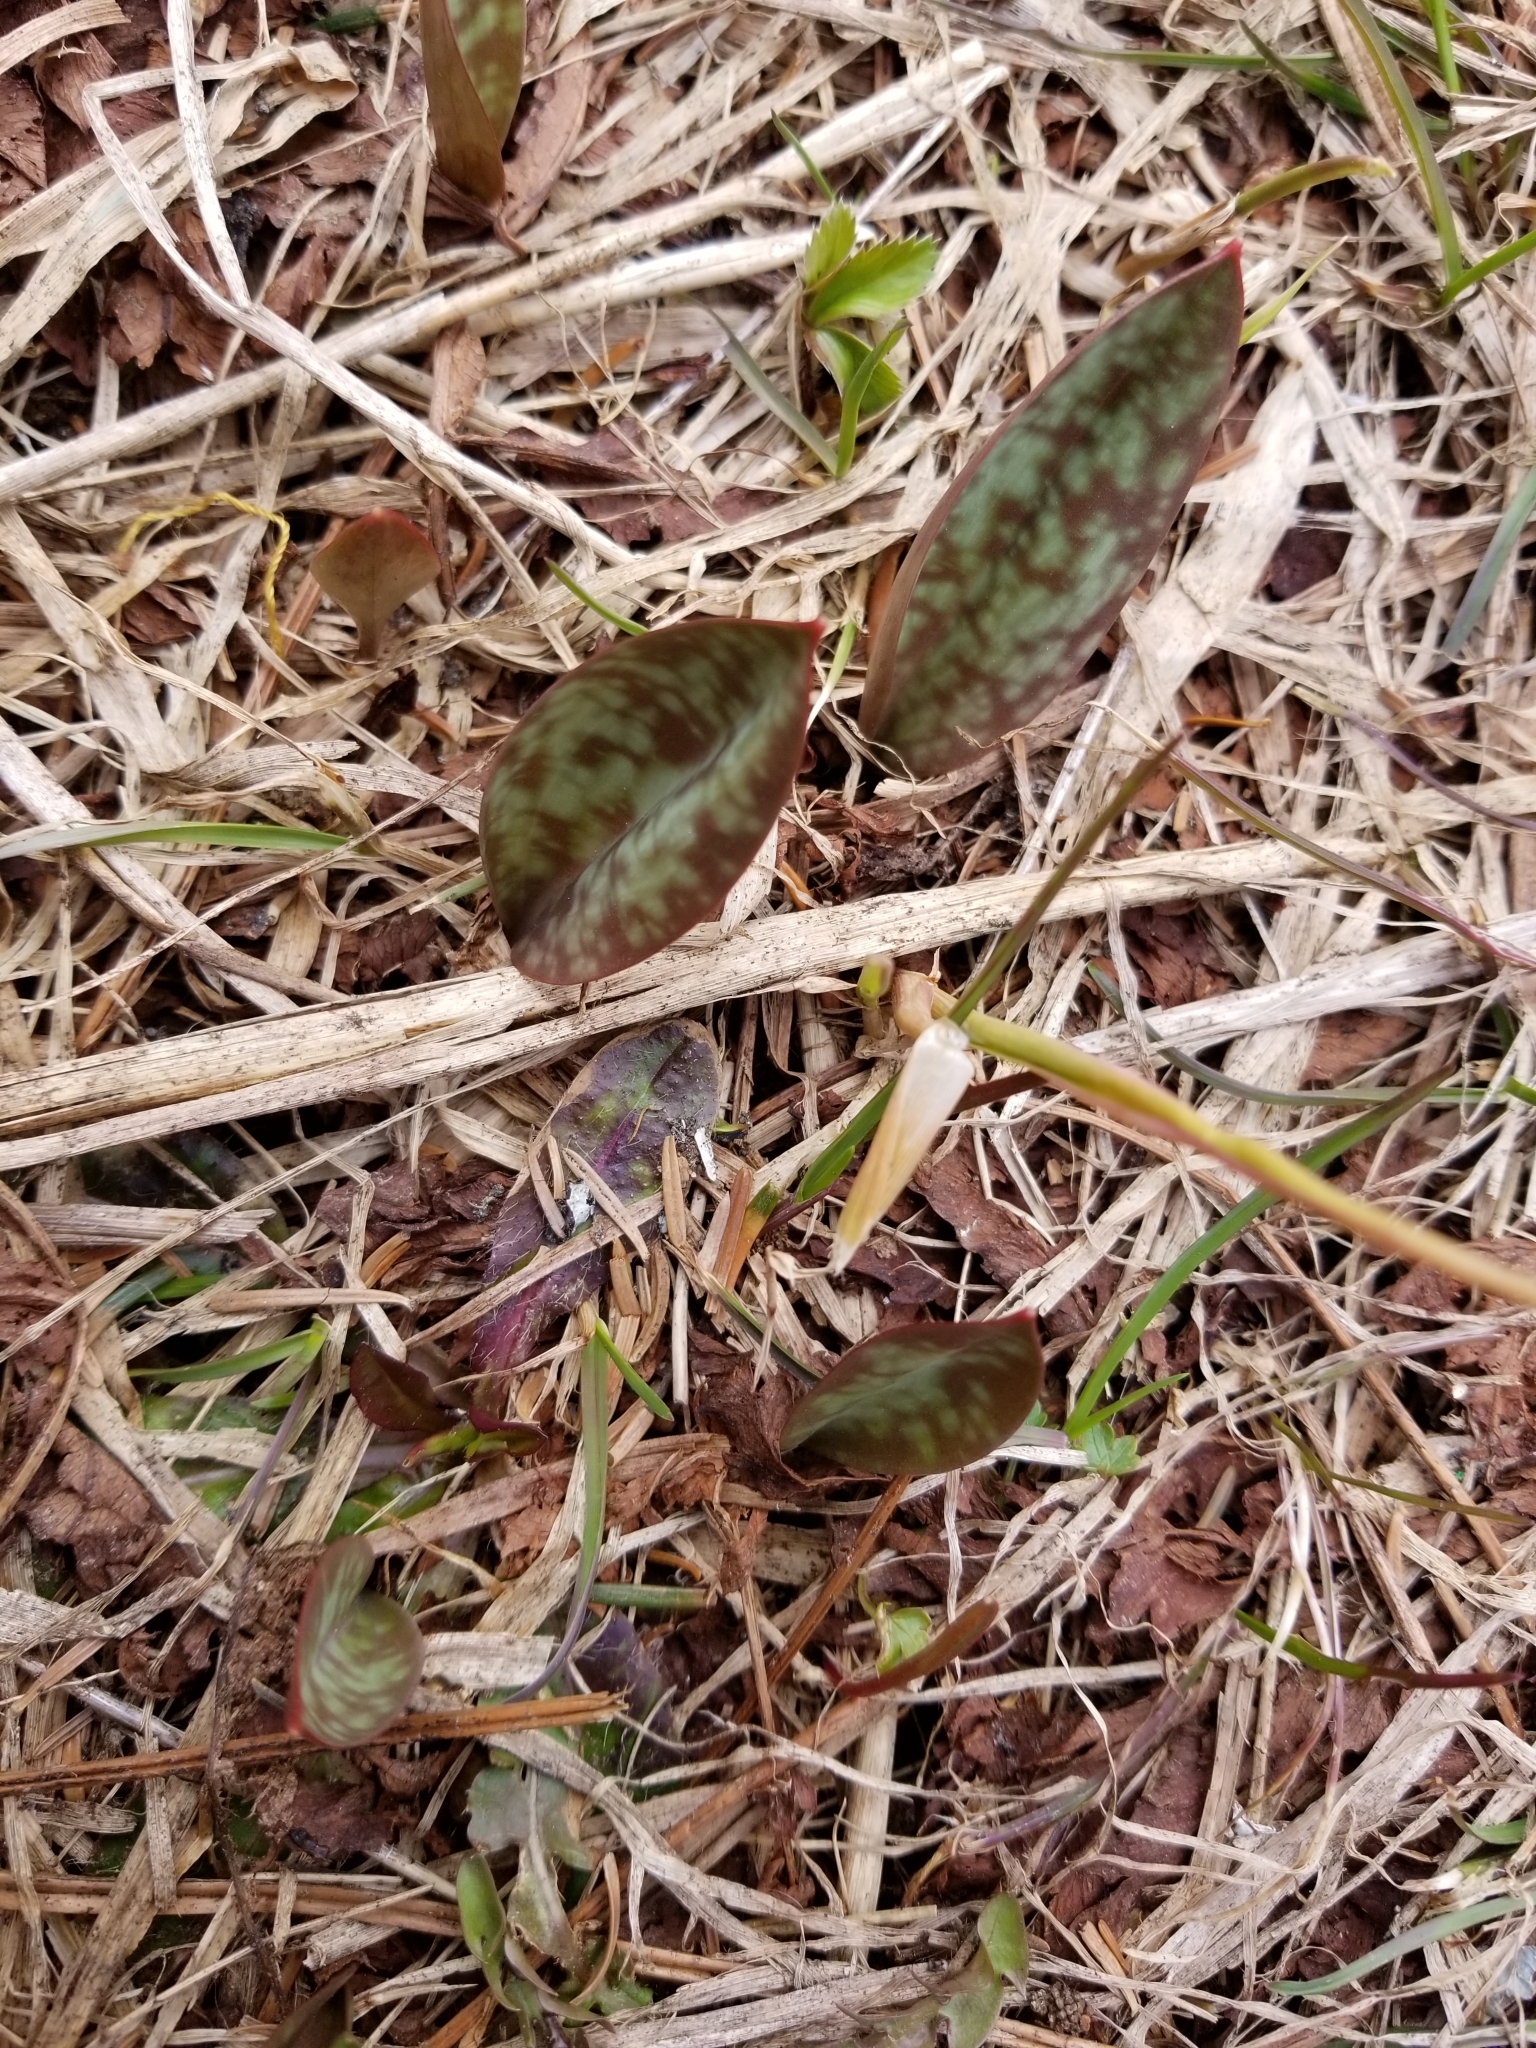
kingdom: Plantae
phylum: Tracheophyta
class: Liliopsida
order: Liliales
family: Liliaceae
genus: Erythronium
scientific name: Erythronium americanum
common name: Yellow adder's-tongue
